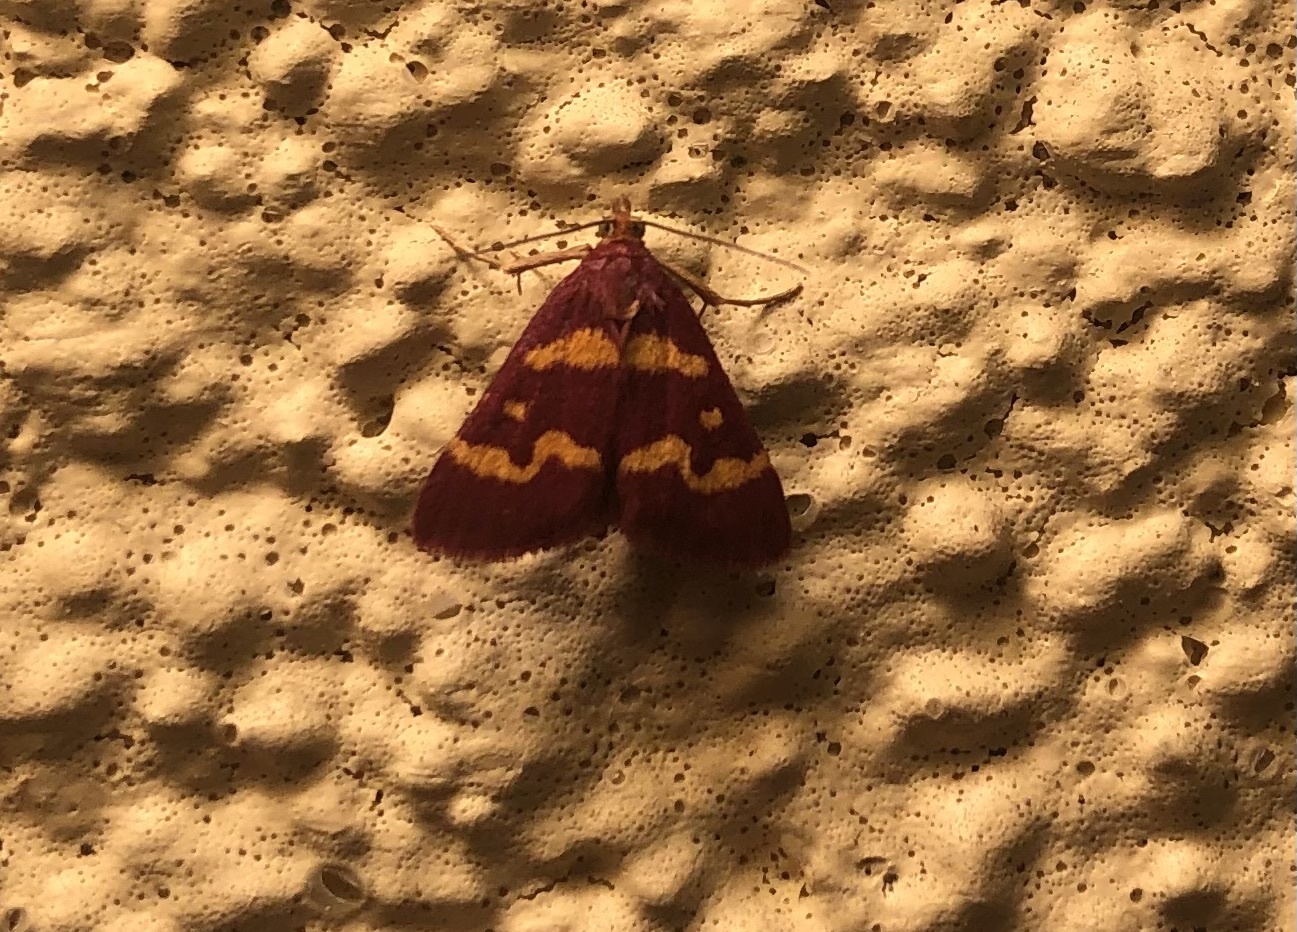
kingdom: Animalia
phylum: Arthropoda
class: Insecta
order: Lepidoptera
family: Crambidae
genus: Pyrausta
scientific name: Pyrausta tyralis
